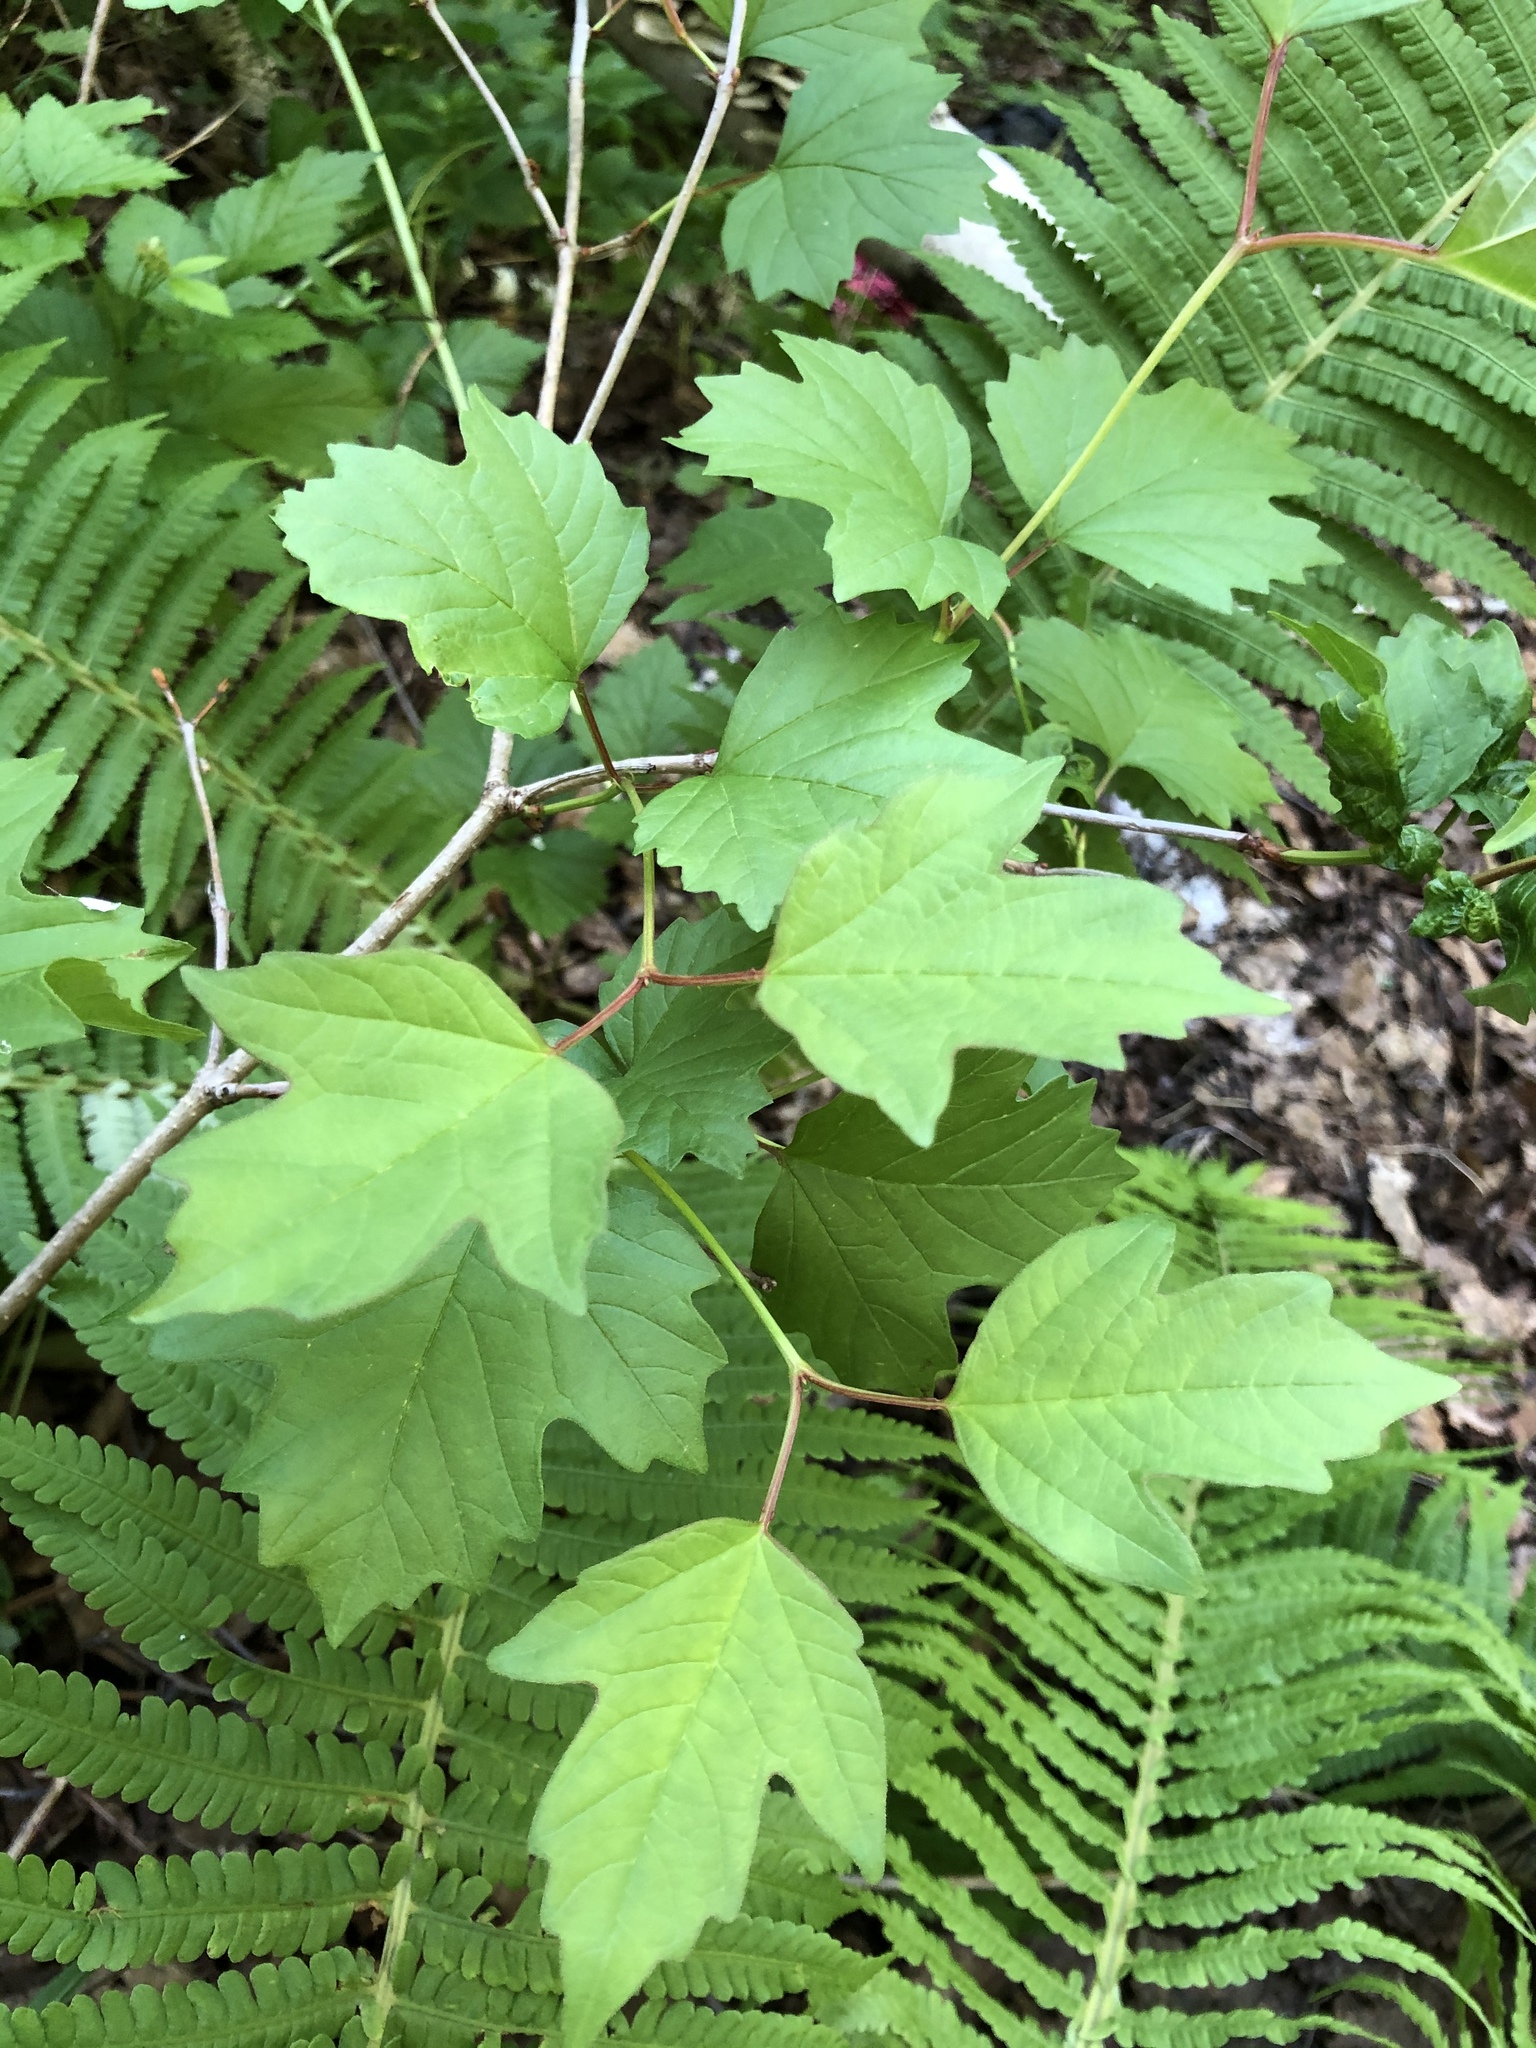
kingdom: Plantae
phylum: Tracheophyta
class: Magnoliopsida
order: Dipsacales
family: Viburnaceae
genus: Viburnum
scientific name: Viburnum opulus
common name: Guelder-rose
